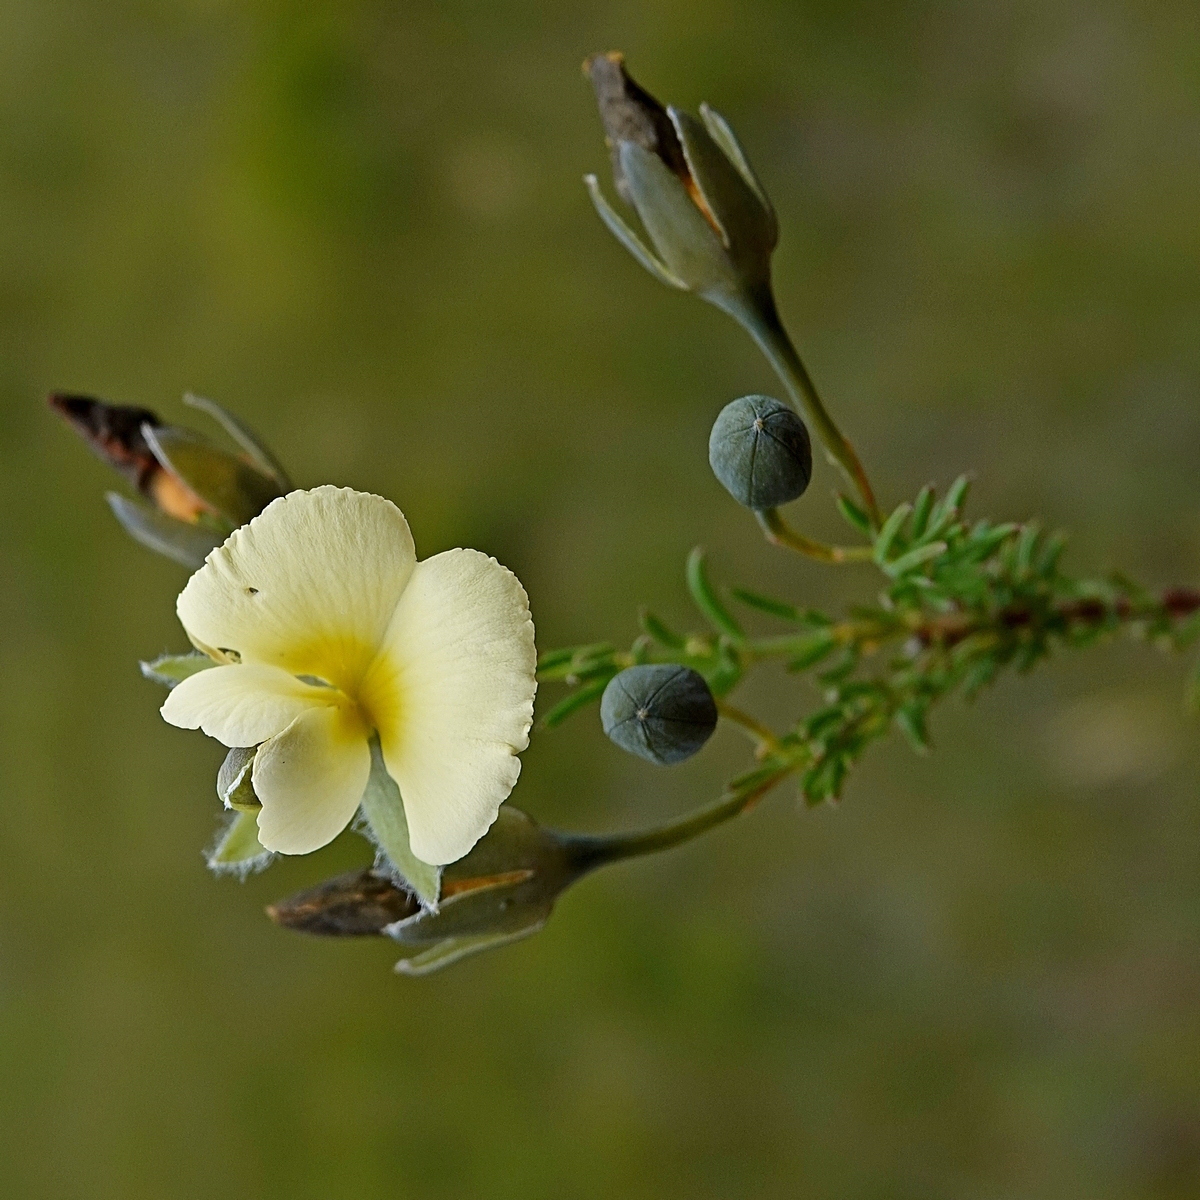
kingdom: Plantae
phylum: Tracheophyta
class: Magnoliopsida
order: Fabales
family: Fabaceae
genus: Gompholobium
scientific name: Gompholobium huegelii
